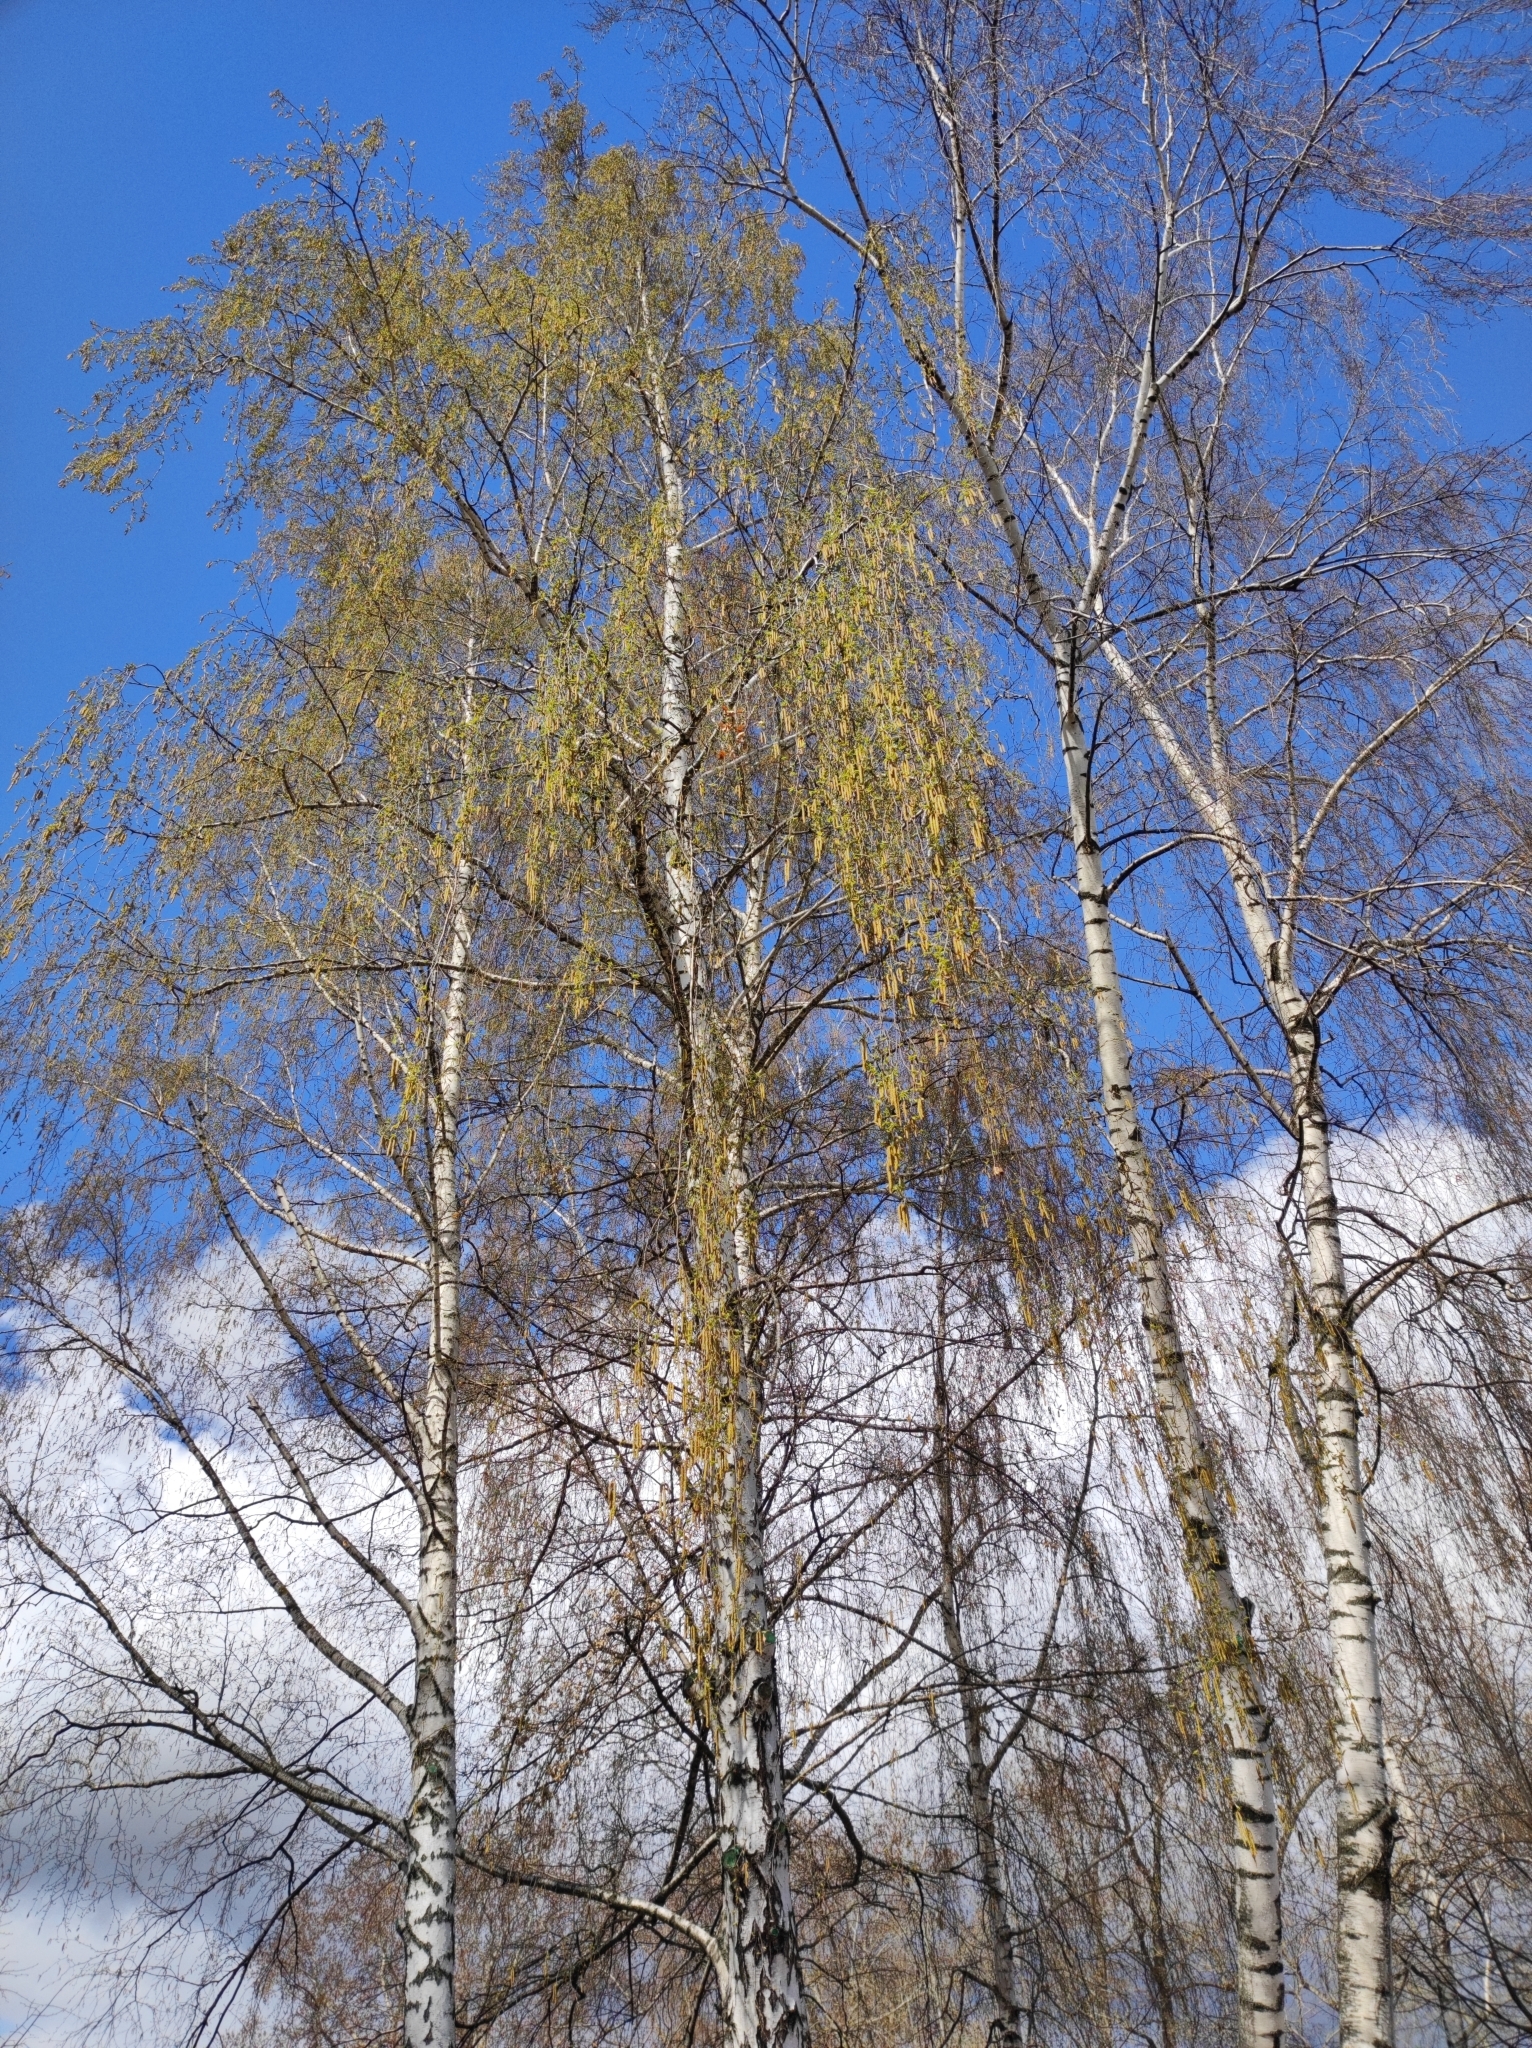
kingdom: Plantae
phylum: Tracheophyta
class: Magnoliopsida
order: Fagales
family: Betulaceae
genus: Betula
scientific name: Betula pendula
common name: Silver birch
